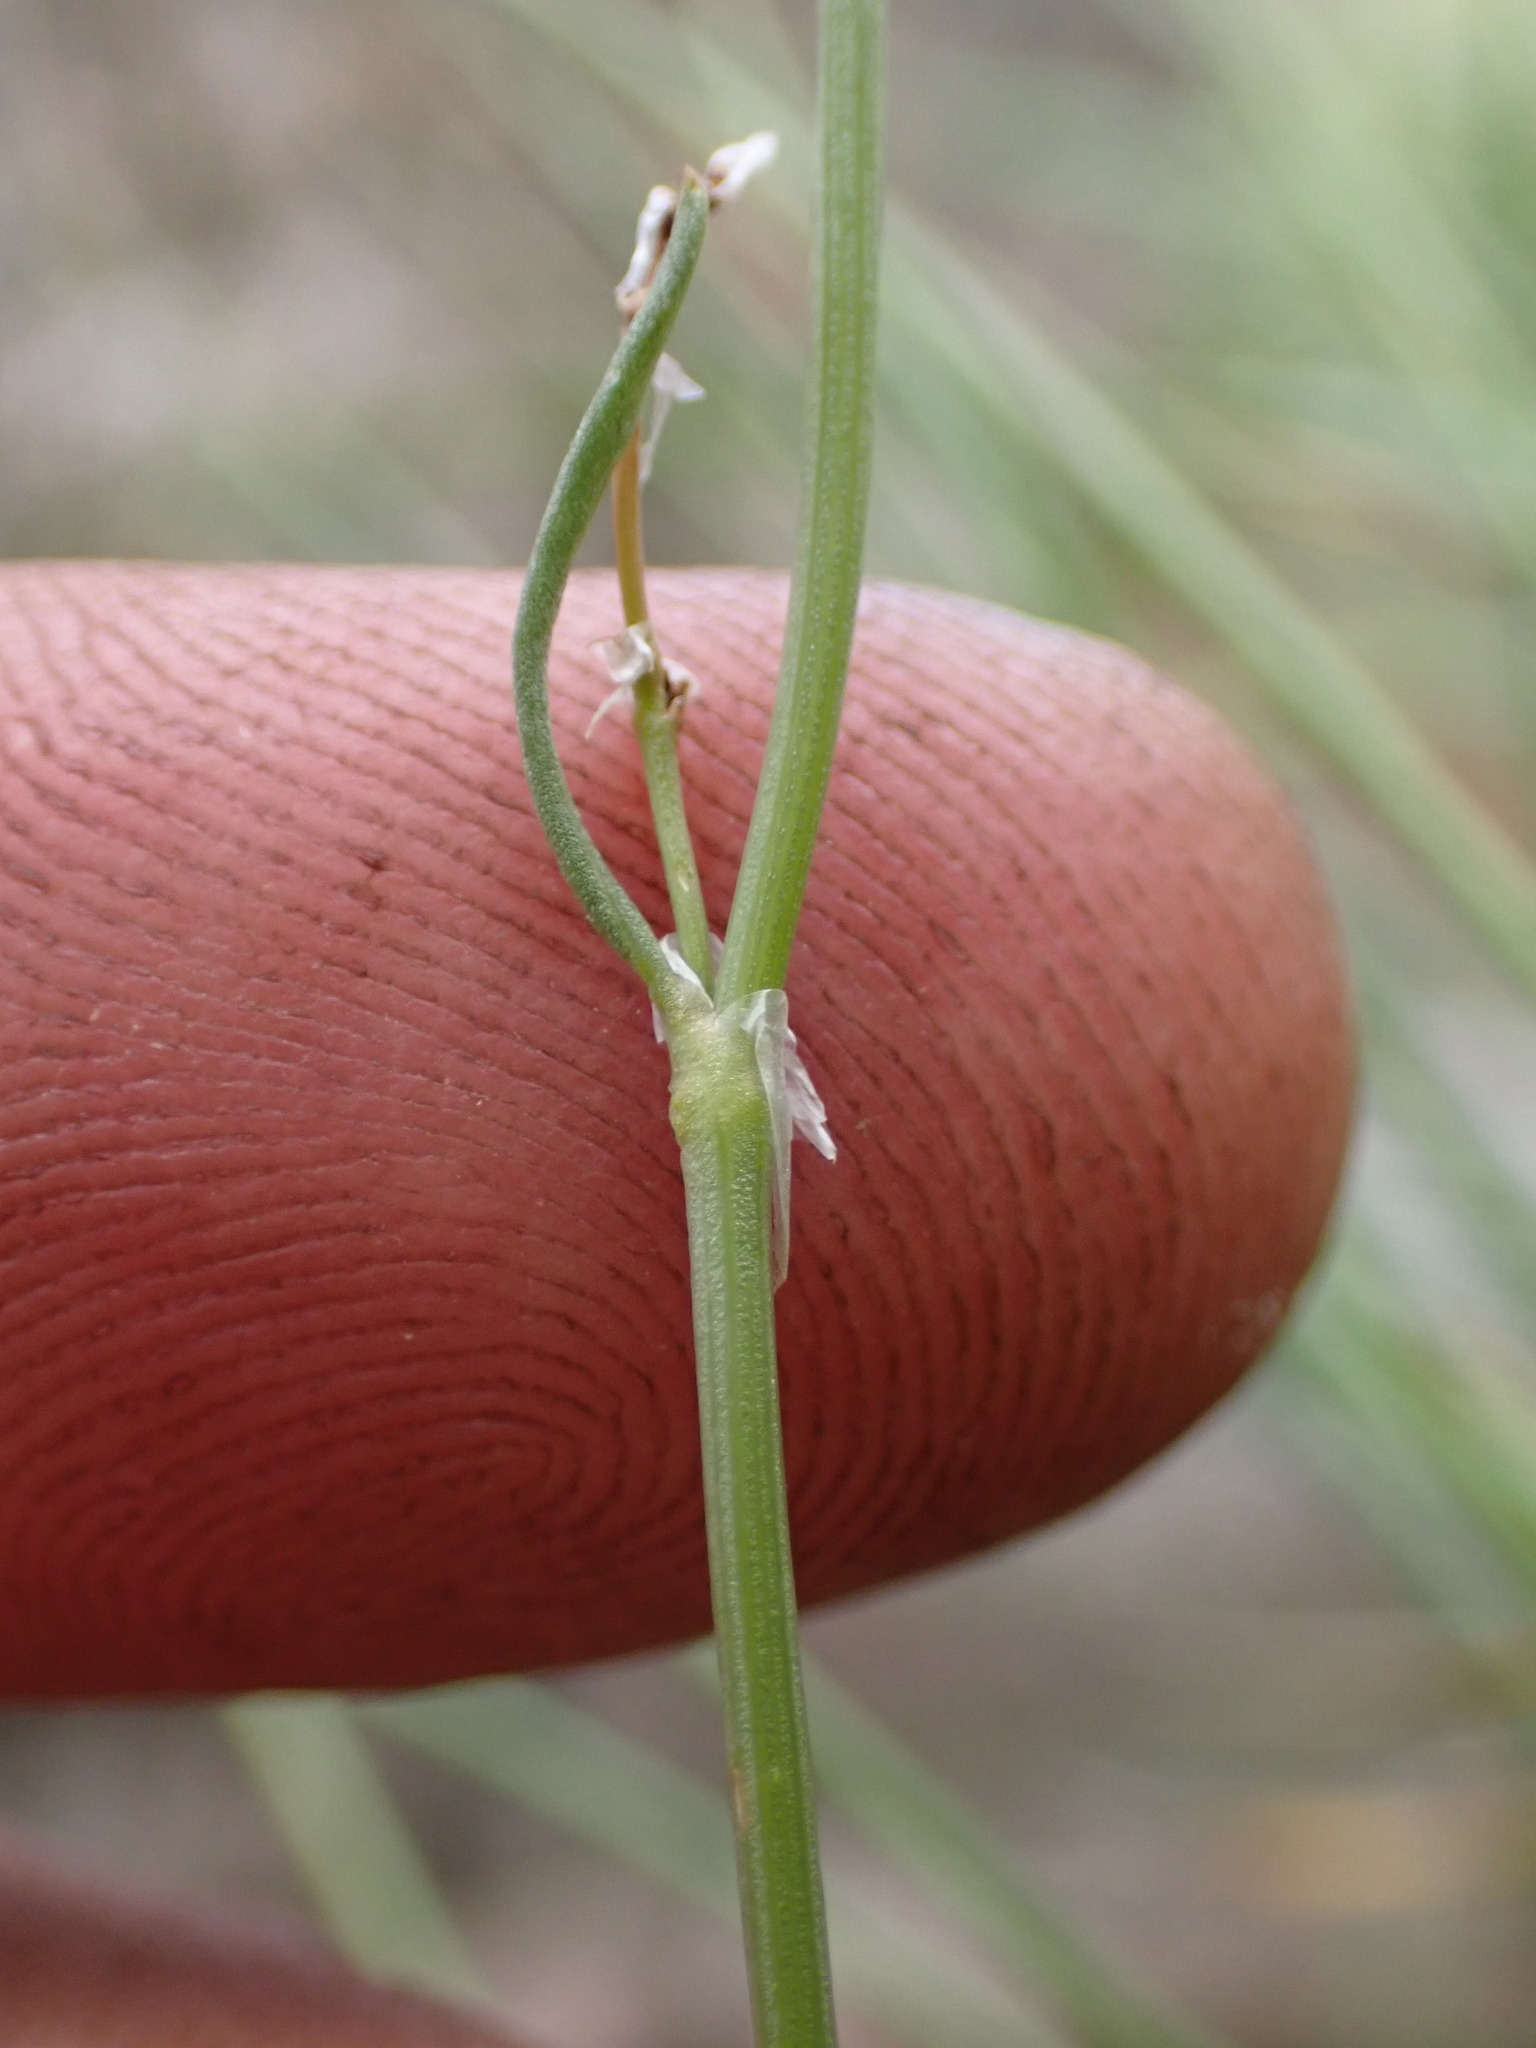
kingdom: Plantae
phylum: Tracheophyta
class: Magnoliopsida
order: Caryophyllales
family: Polygonaceae
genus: Rumex
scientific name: Rumex paucifolius
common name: Alpine sheep sorrel
